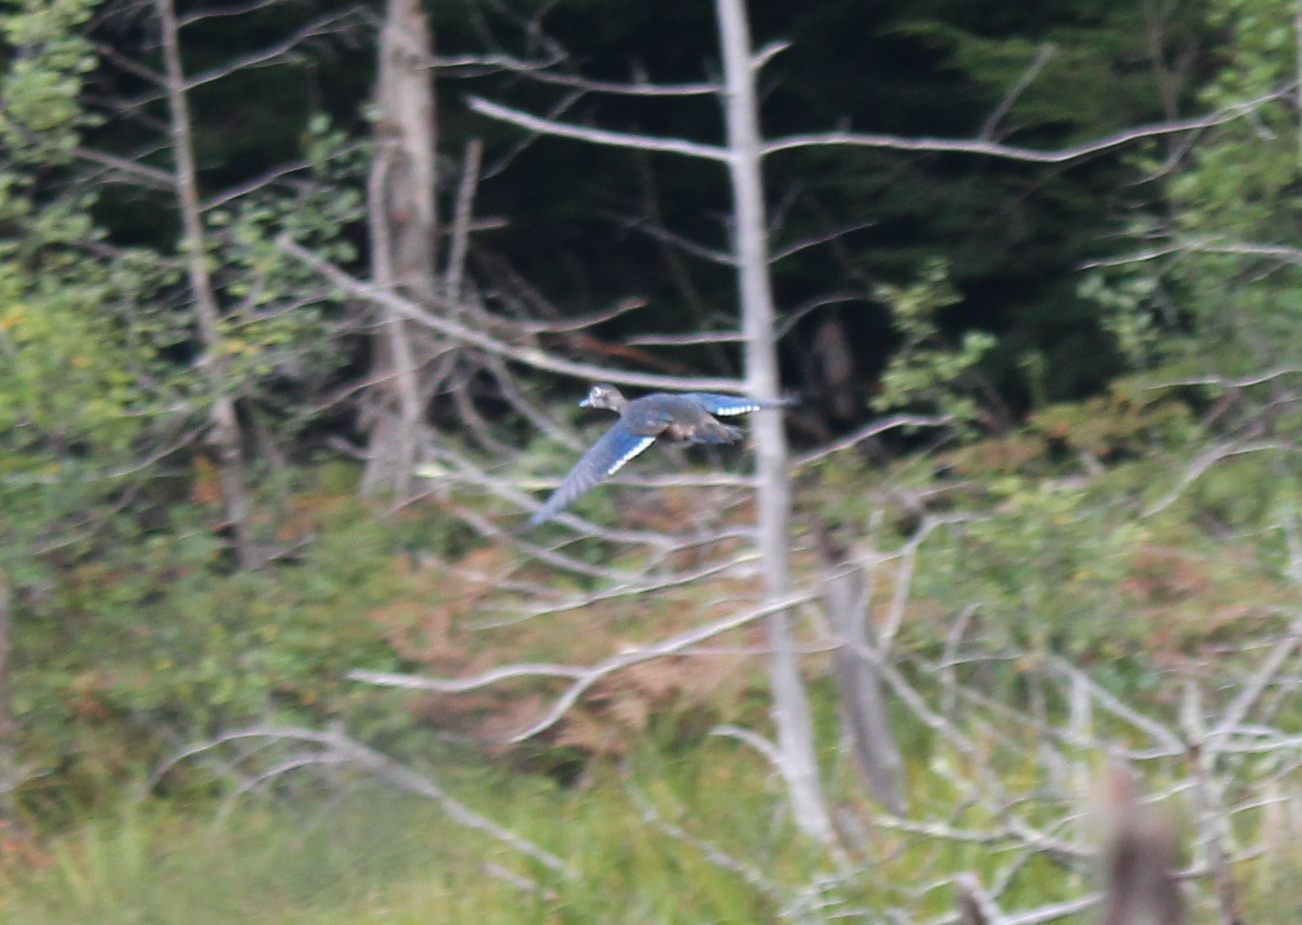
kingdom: Animalia
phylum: Chordata
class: Aves
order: Anseriformes
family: Anatidae
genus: Aix
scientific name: Aix sponsa
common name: Wood duck
